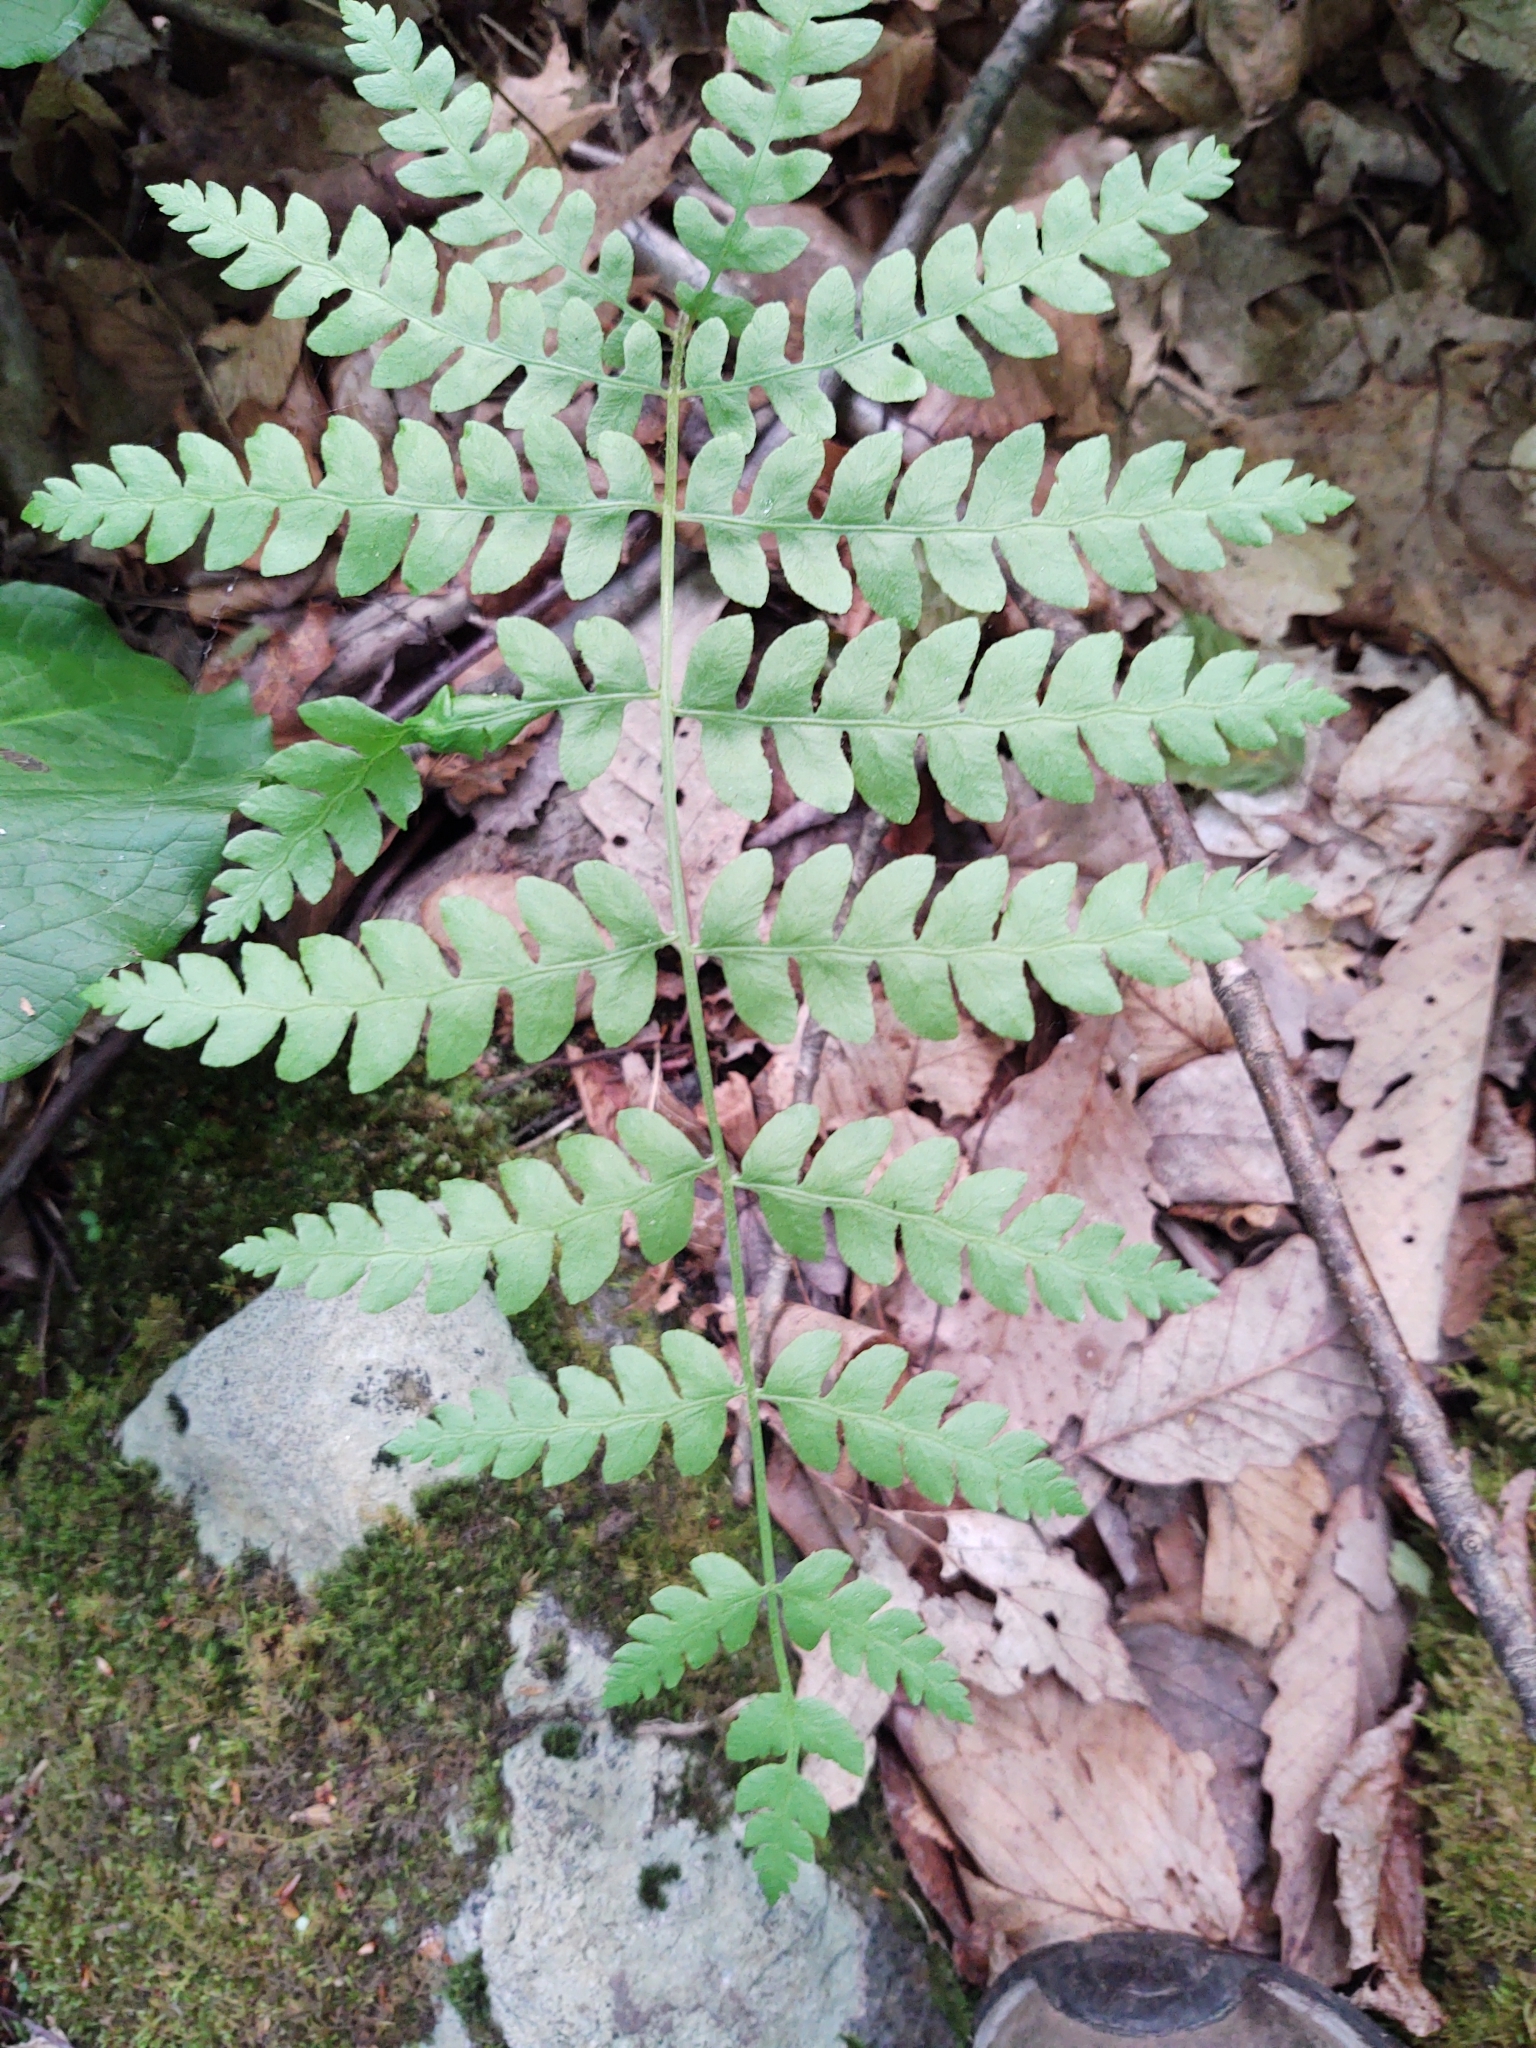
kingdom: Plantae
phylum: Tracheophyta
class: Polypodiopsida
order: Osmundales
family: Osmundaceae
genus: Osmundastrum
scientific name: Osmundastrum cinnamomeum
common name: Cinnamon fern
